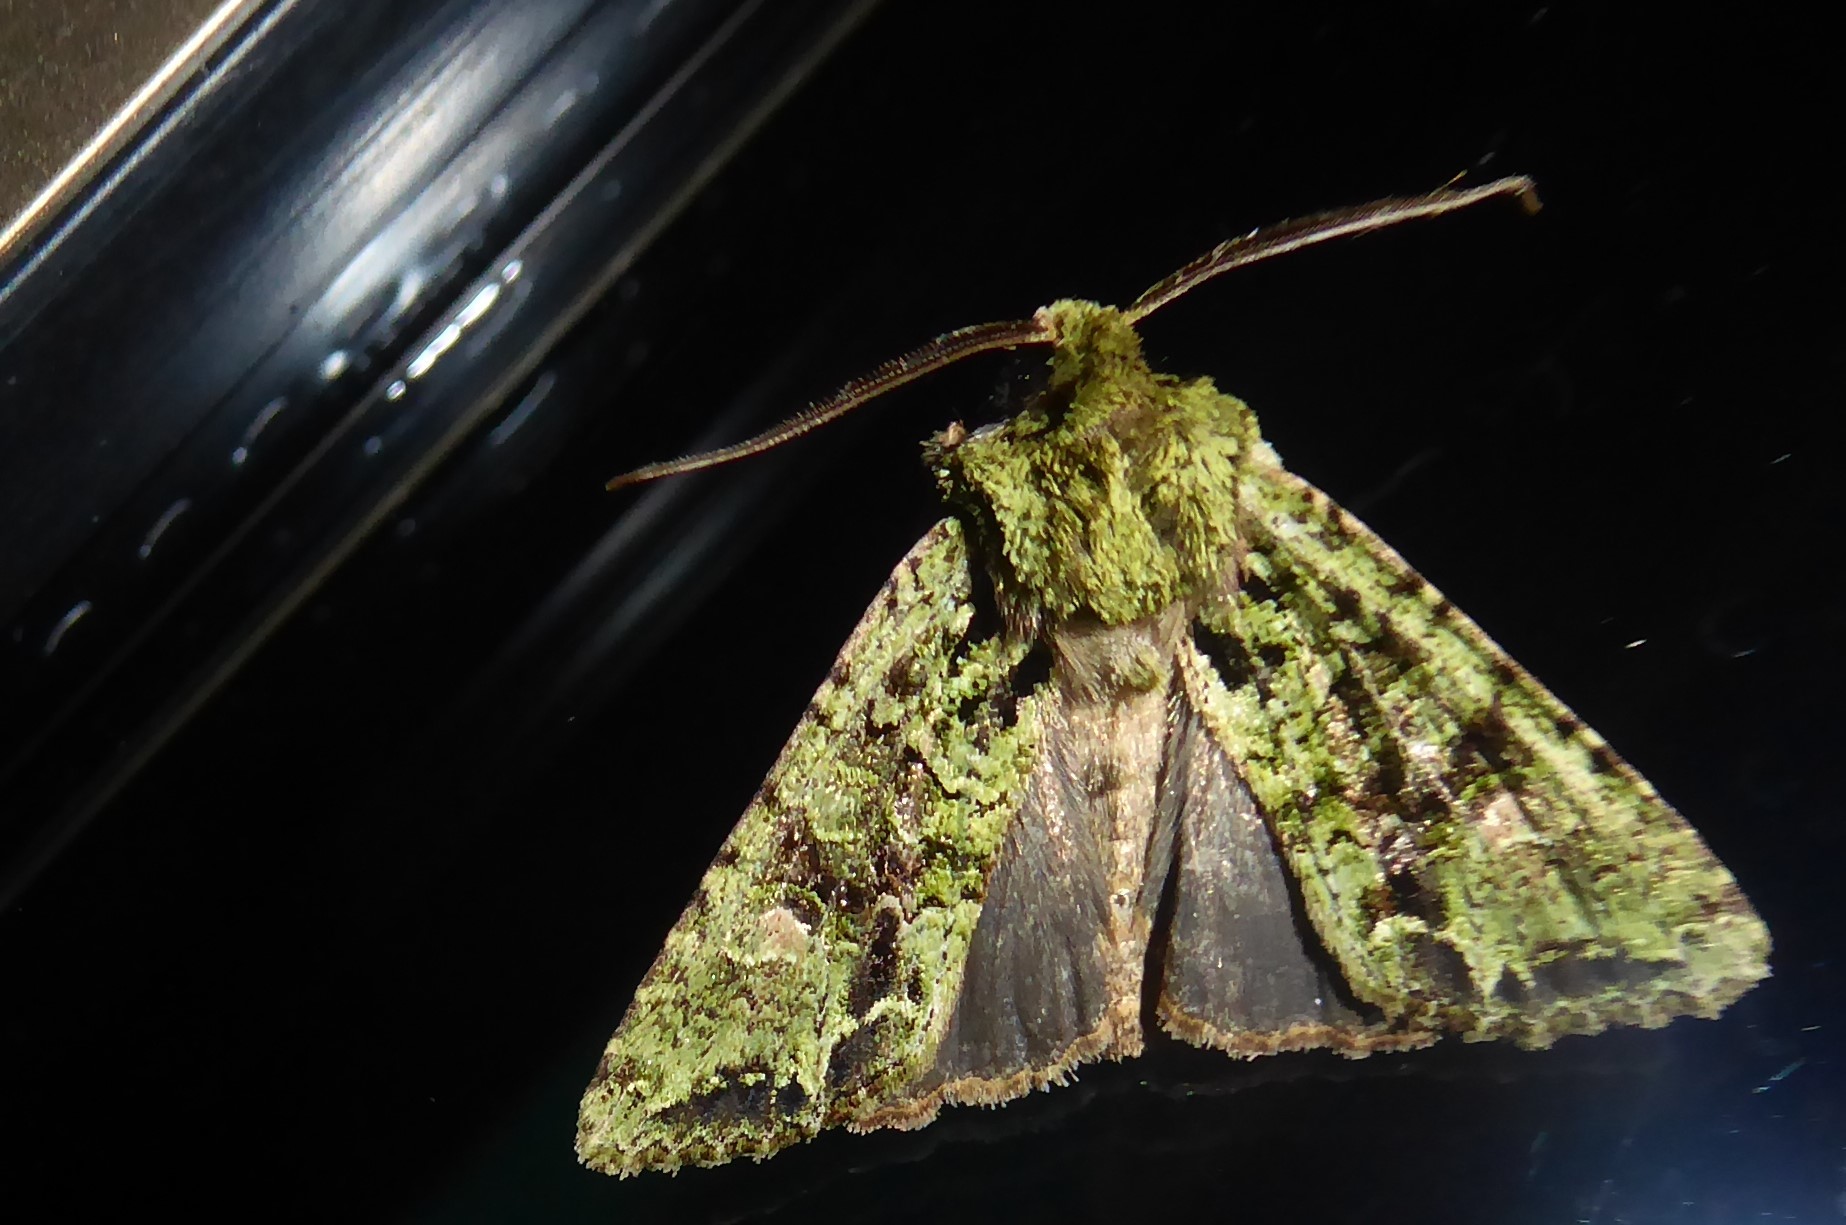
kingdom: Animalia
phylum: Arthropoda
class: Insecta
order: Lepidoptera
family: Noctuidae
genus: Ichneutica
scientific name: Ichneutica
